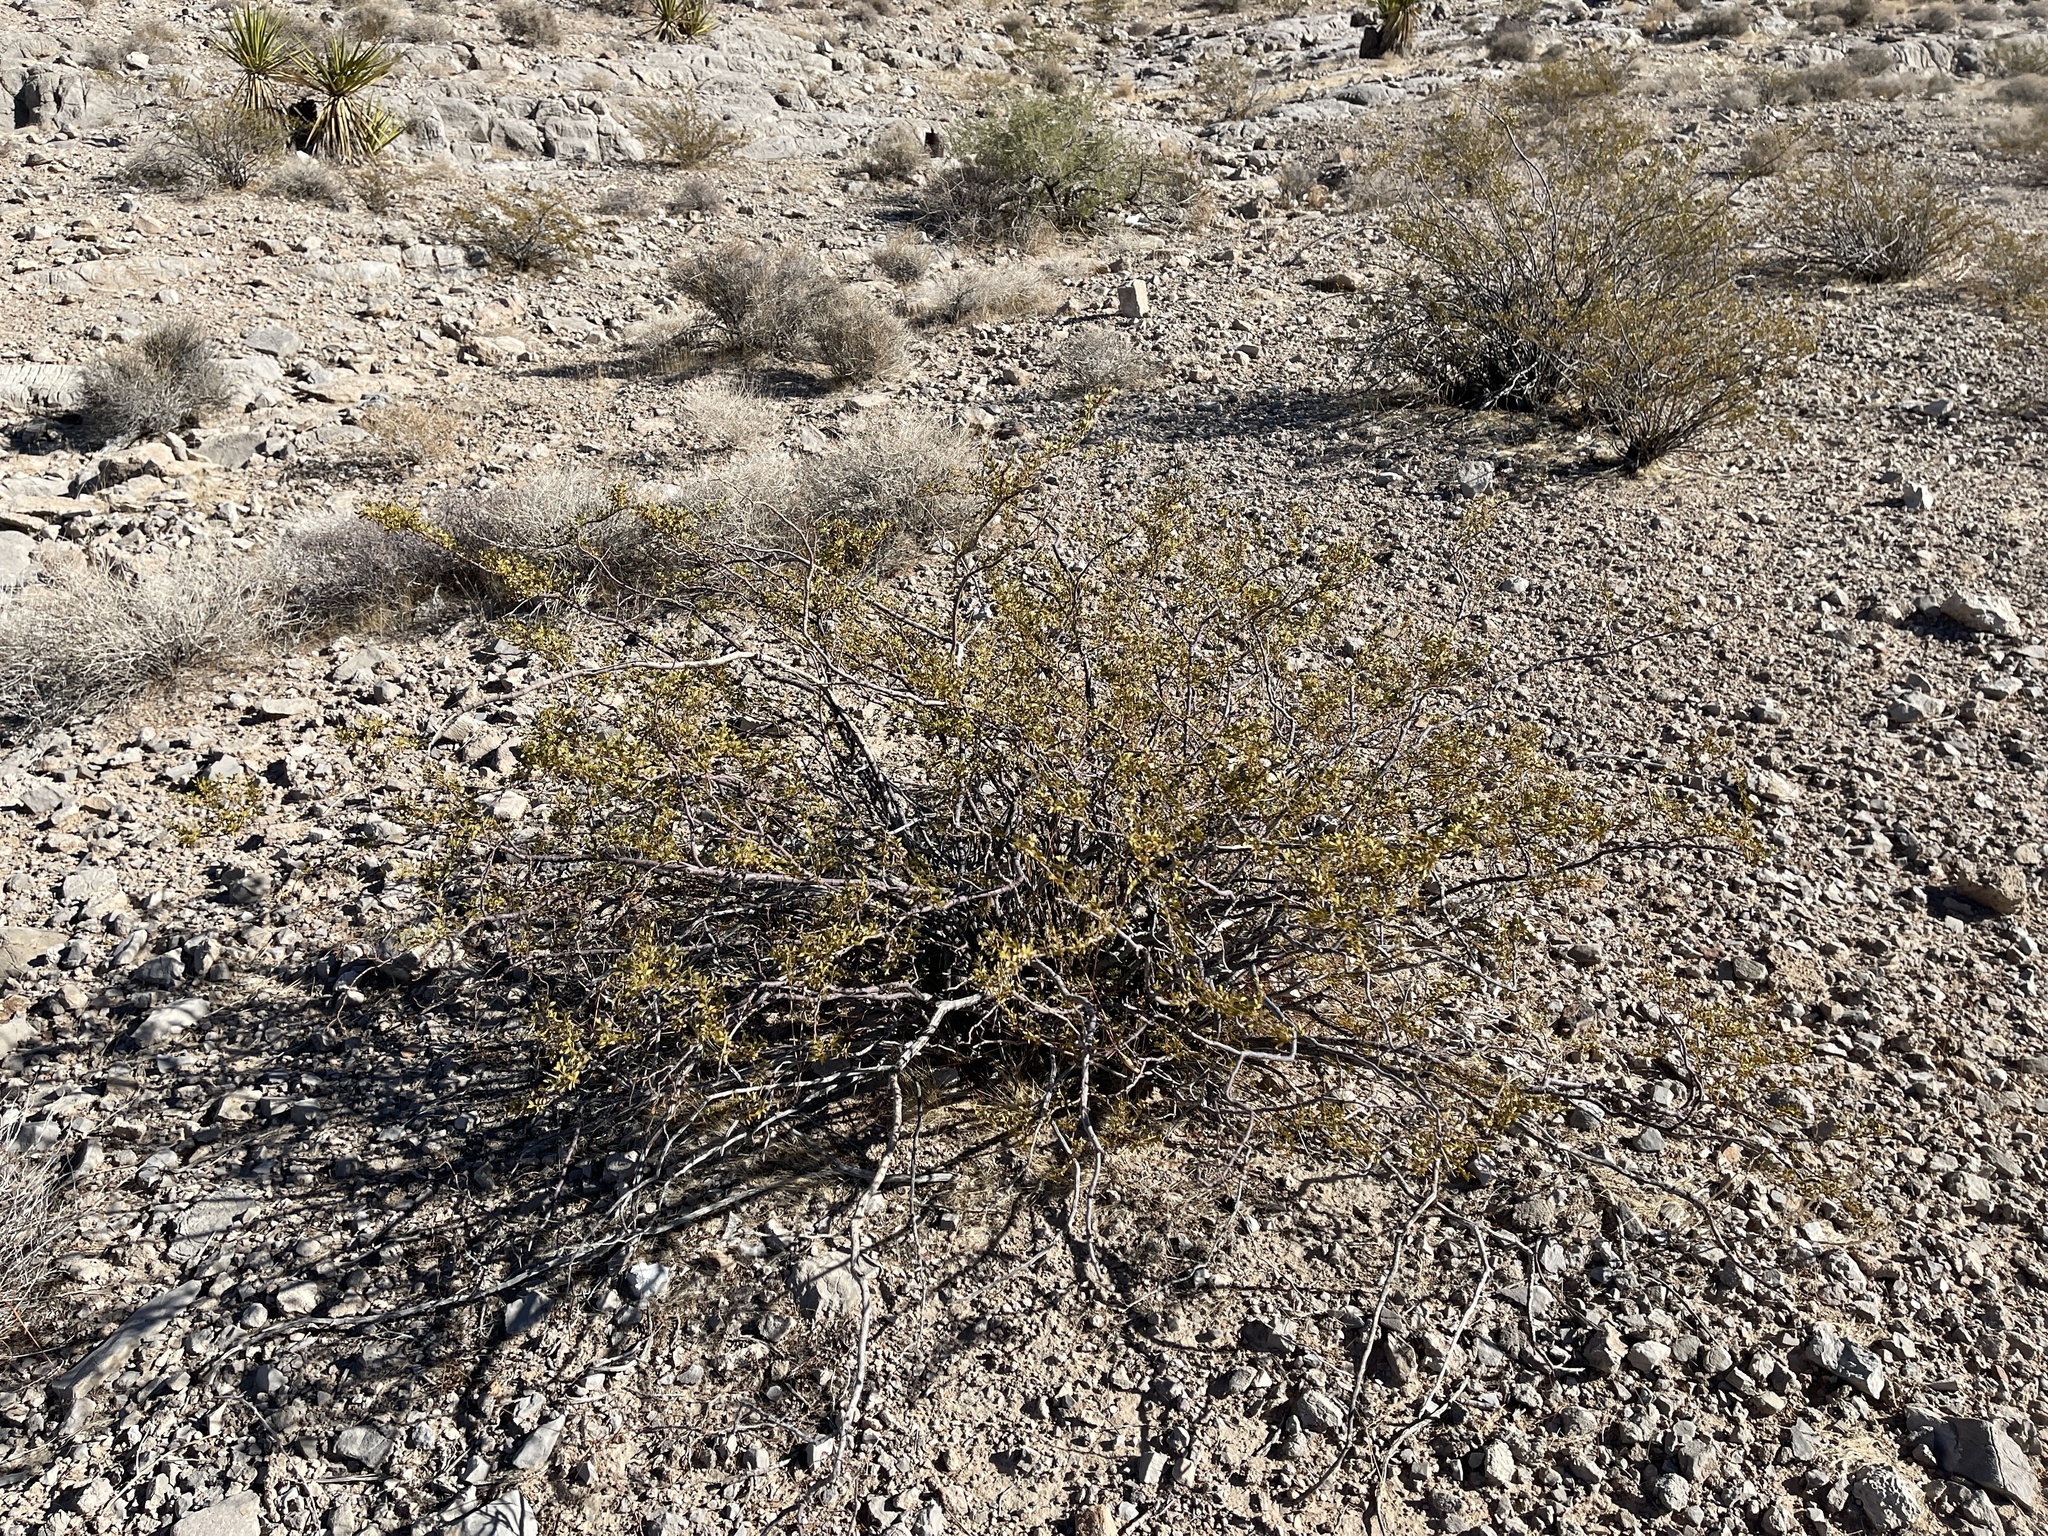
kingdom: Plantae
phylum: Tracheophyta
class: Magnoliopsida
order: Zygophyllales
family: Zygophyllaceae
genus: Larrea
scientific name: Larrea tridentata
